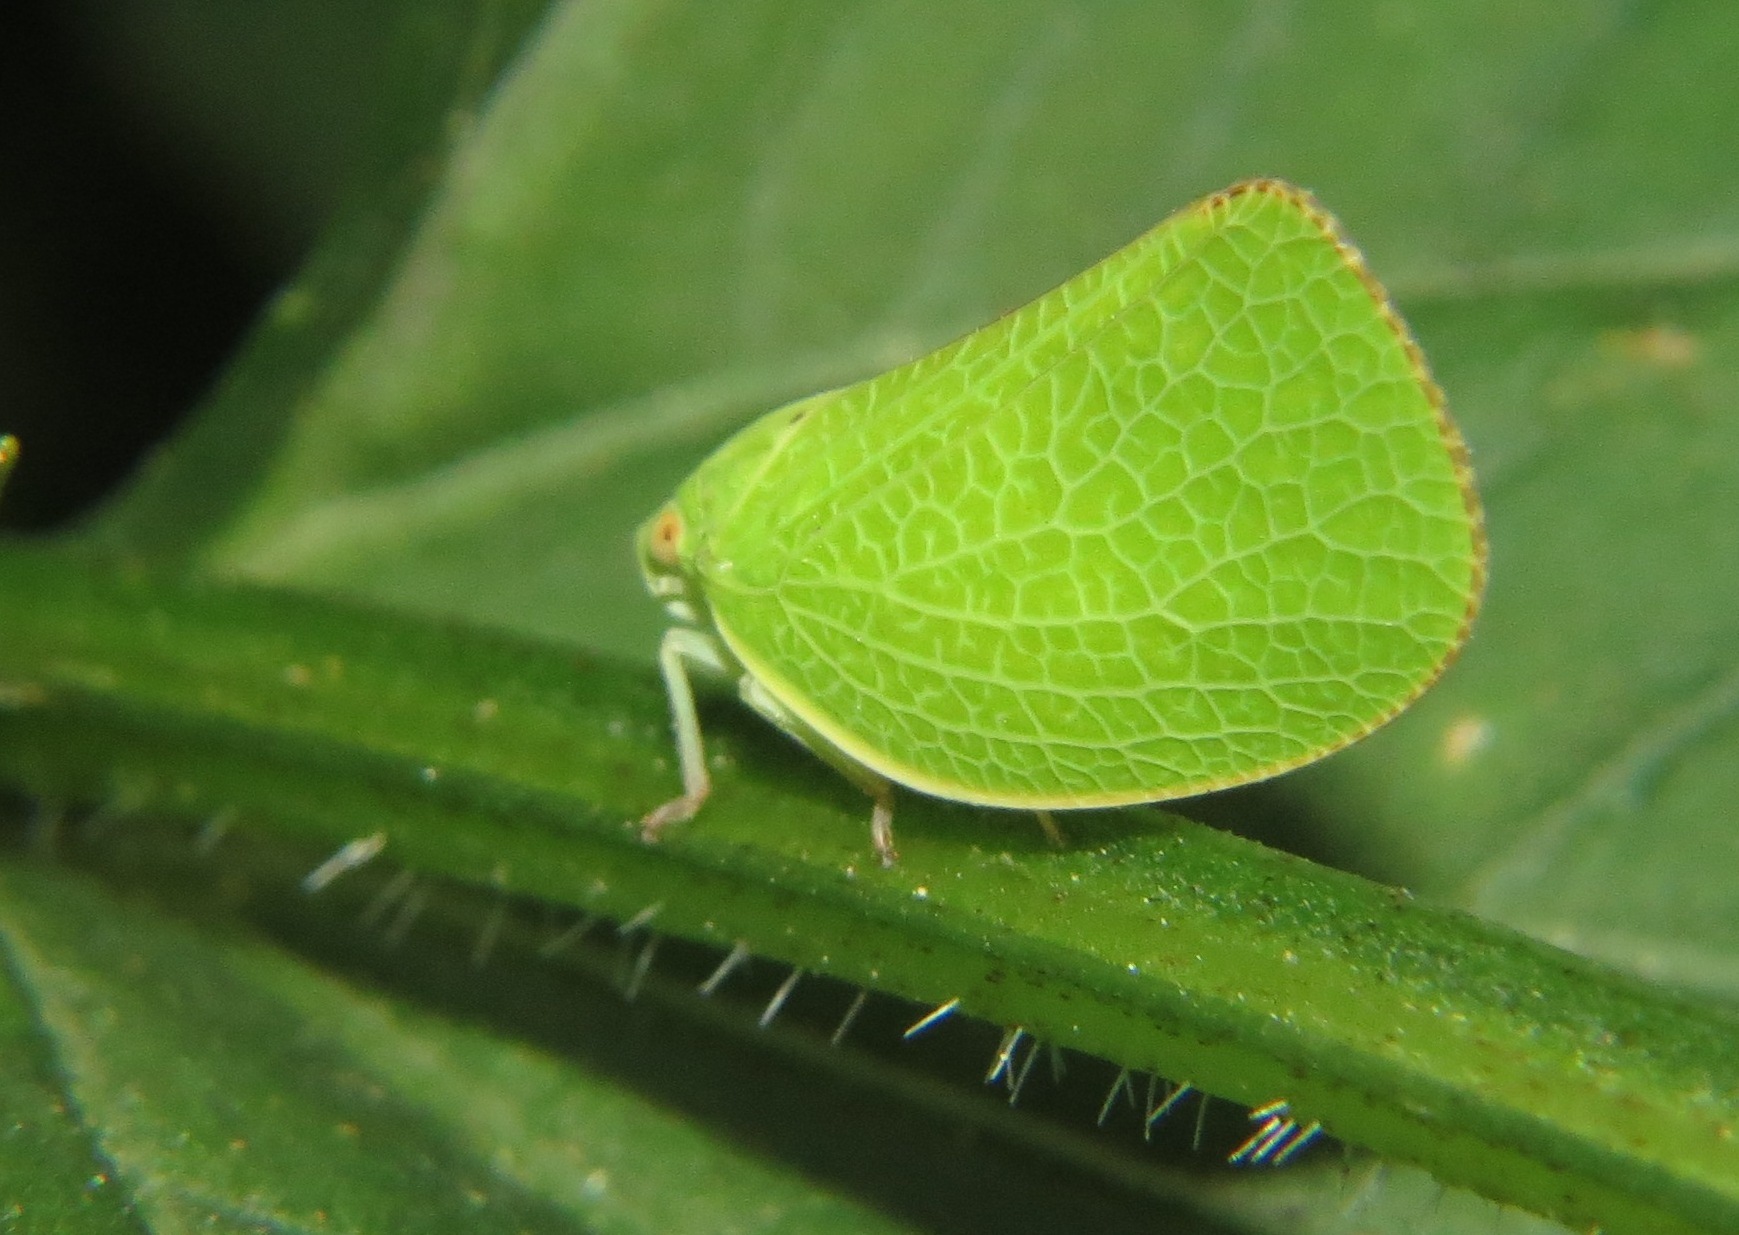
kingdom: Animalia
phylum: Arthropoda
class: Insecta
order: Hemiptera
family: Acanaloniidae
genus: Acanalonia
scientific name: Acanalonia conica
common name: Green cone-headed planthopper
